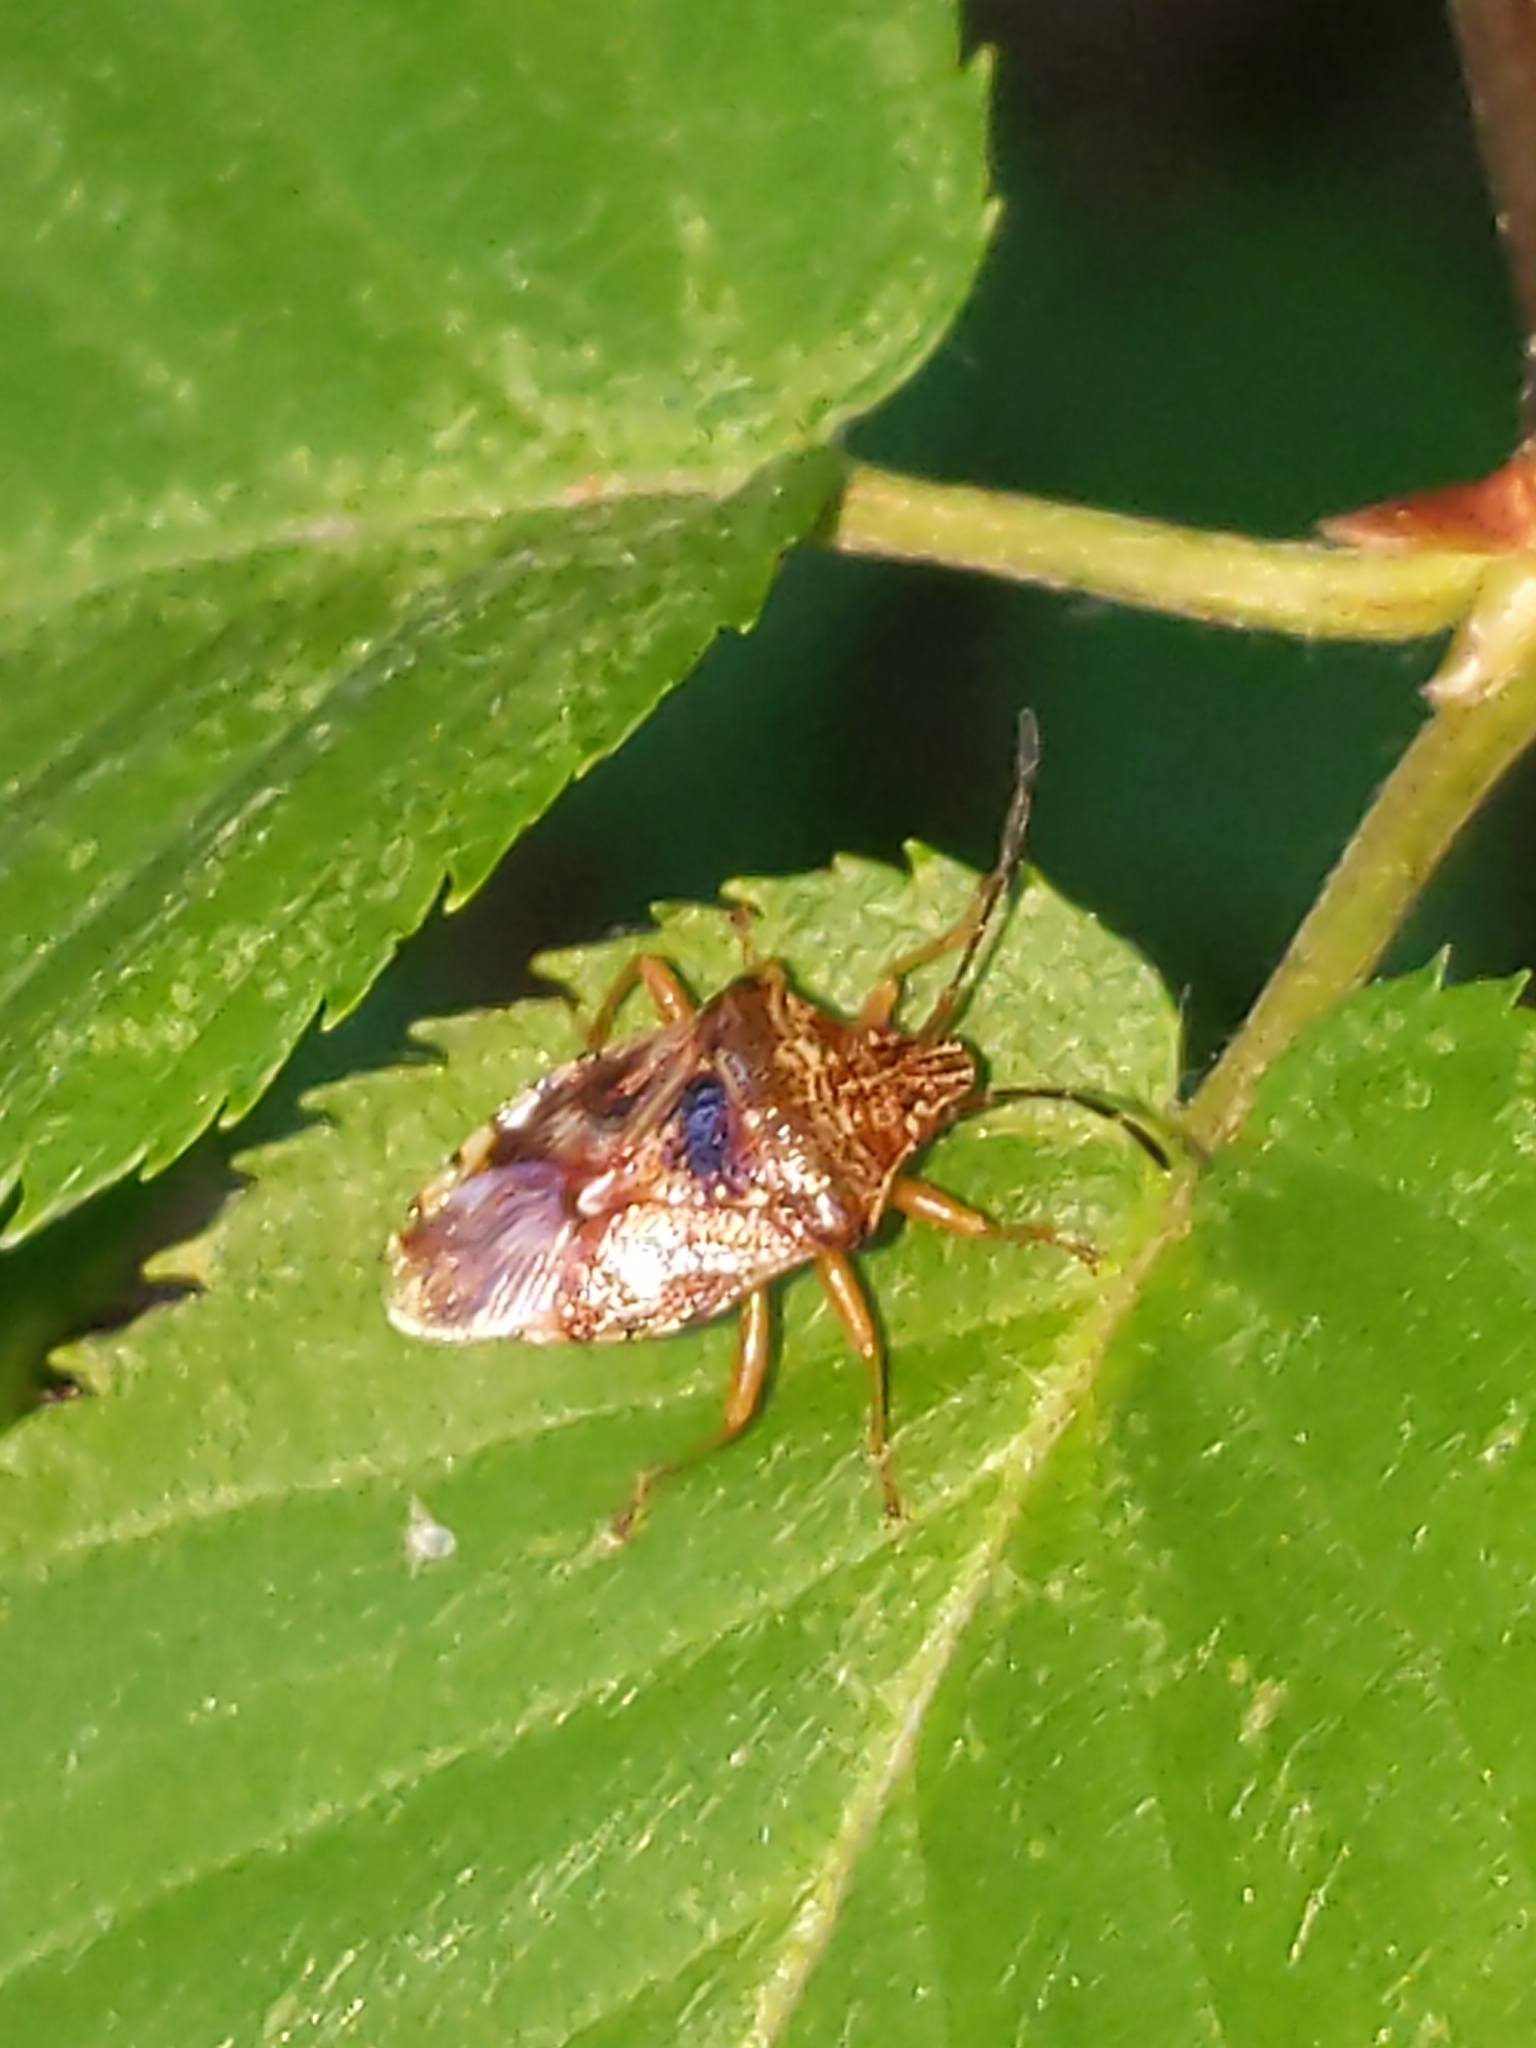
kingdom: Animalia
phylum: Arthropoda
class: Insecta
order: Hemiptera
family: Acanthosomatidae
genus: Elasmucha
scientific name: Elasmucha lateralis
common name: Shield bug
